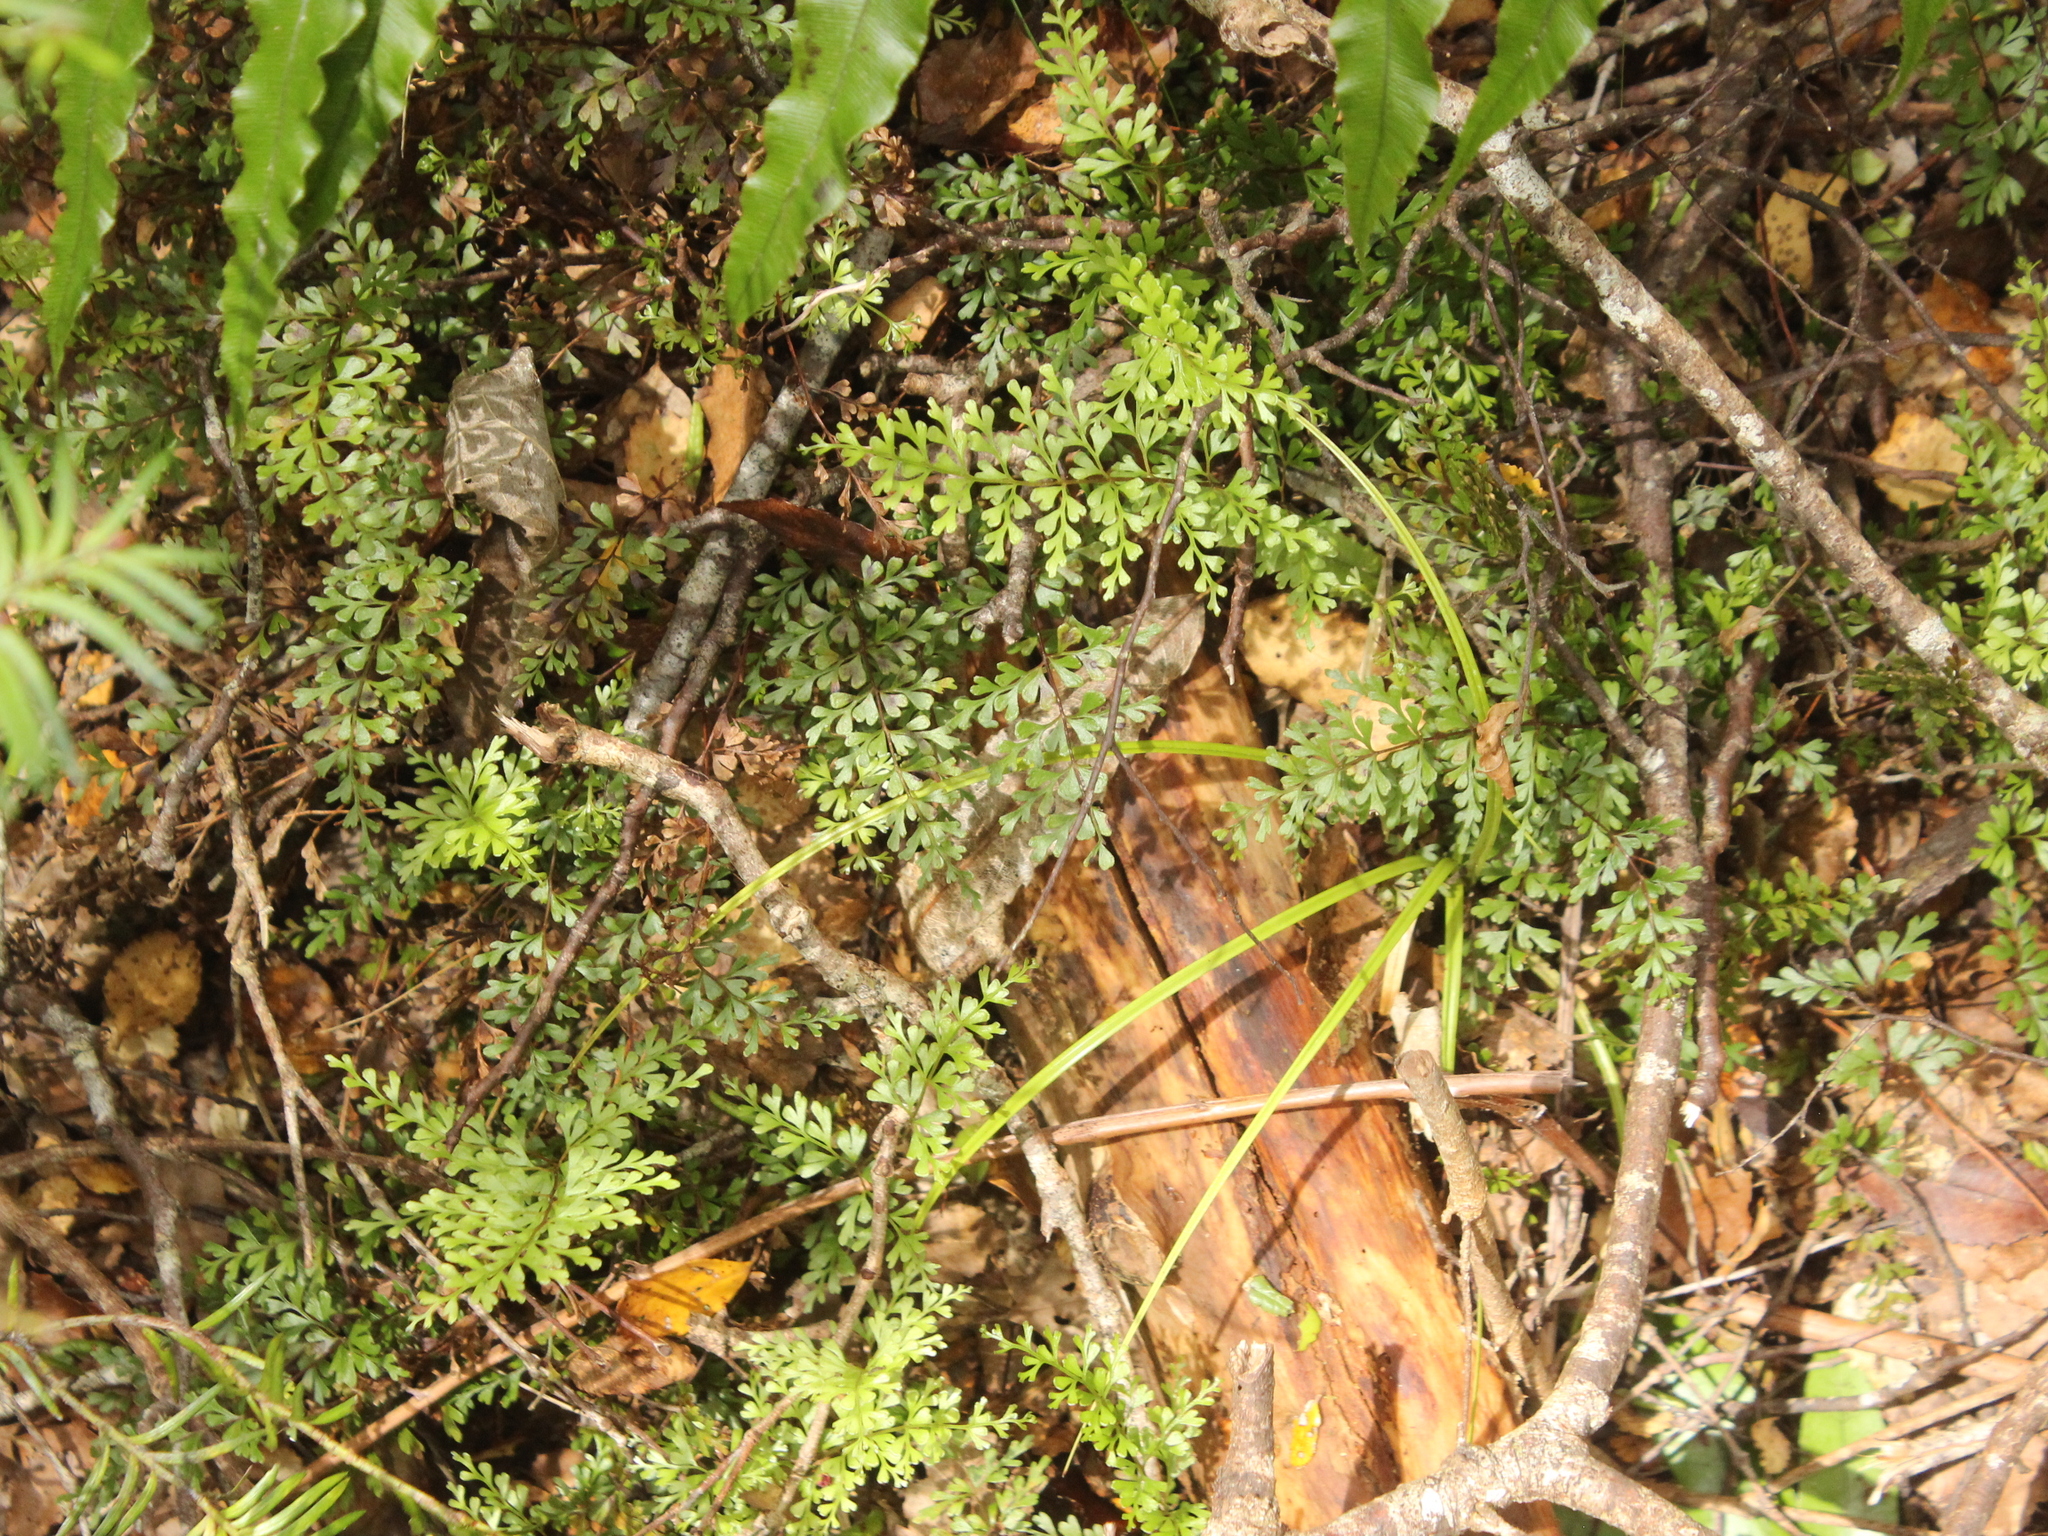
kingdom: Plantae
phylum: Tracheophyta
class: Polypodiopsida
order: Polypodiales
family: Lindsaeaceae
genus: Lindsaea
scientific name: Lindsaea trichomanoides
